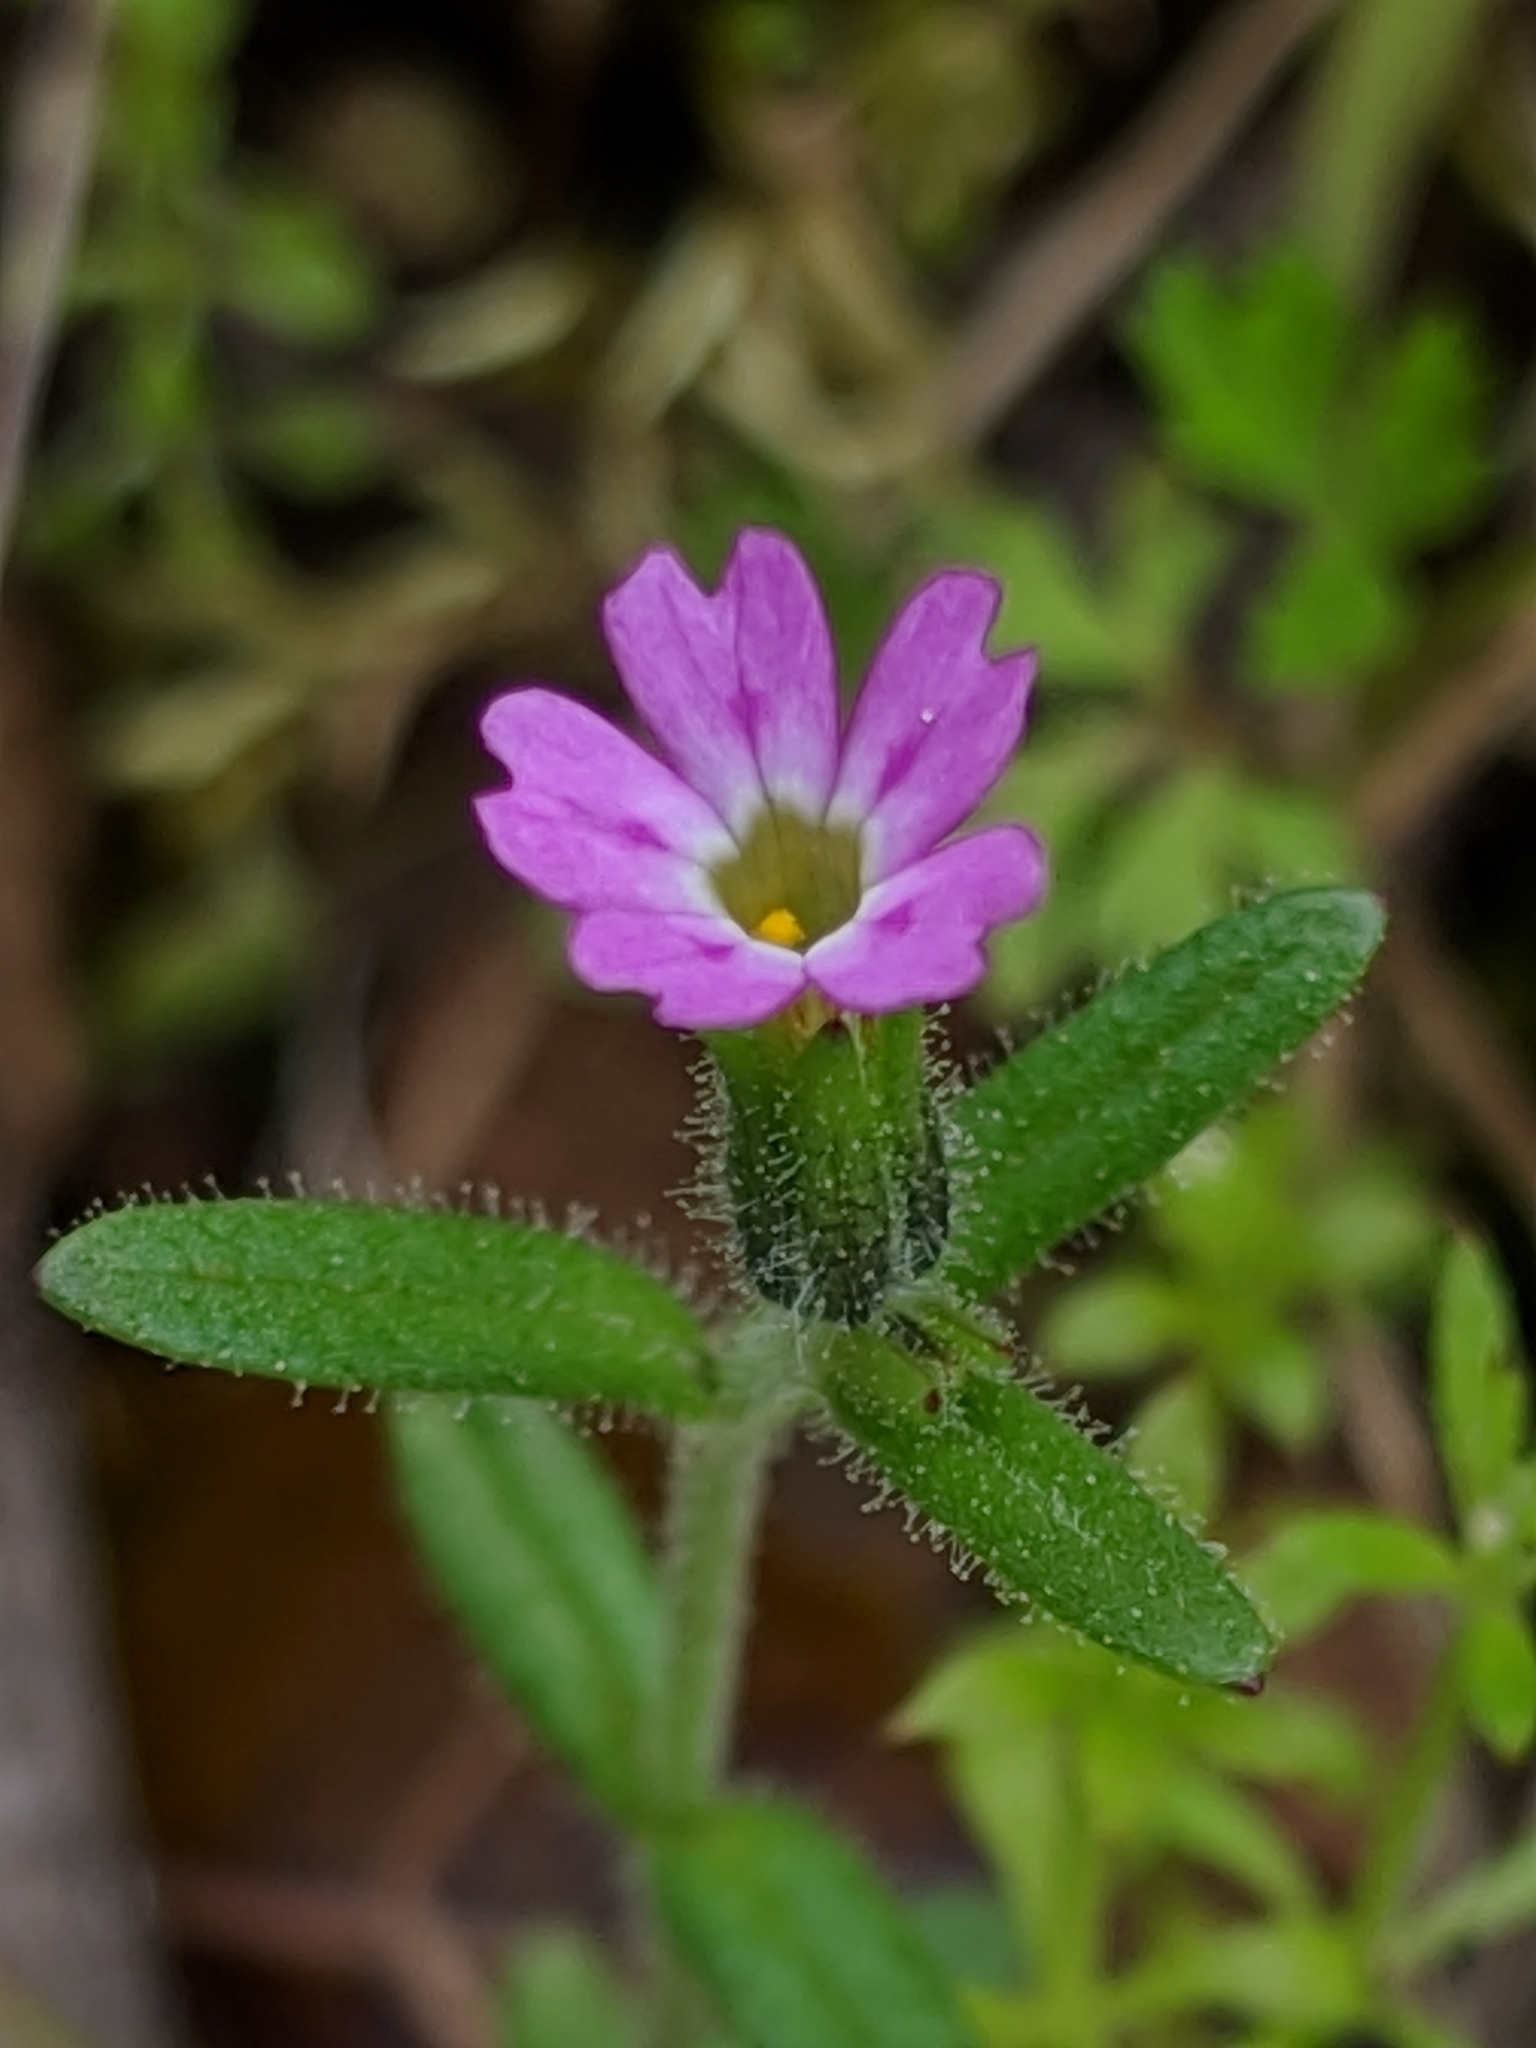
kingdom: Plantae
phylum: Tracheophyta
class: Magnoliopsida
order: Ericales
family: Polemoniaceae
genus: Phlox
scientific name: Phlox gracilis
